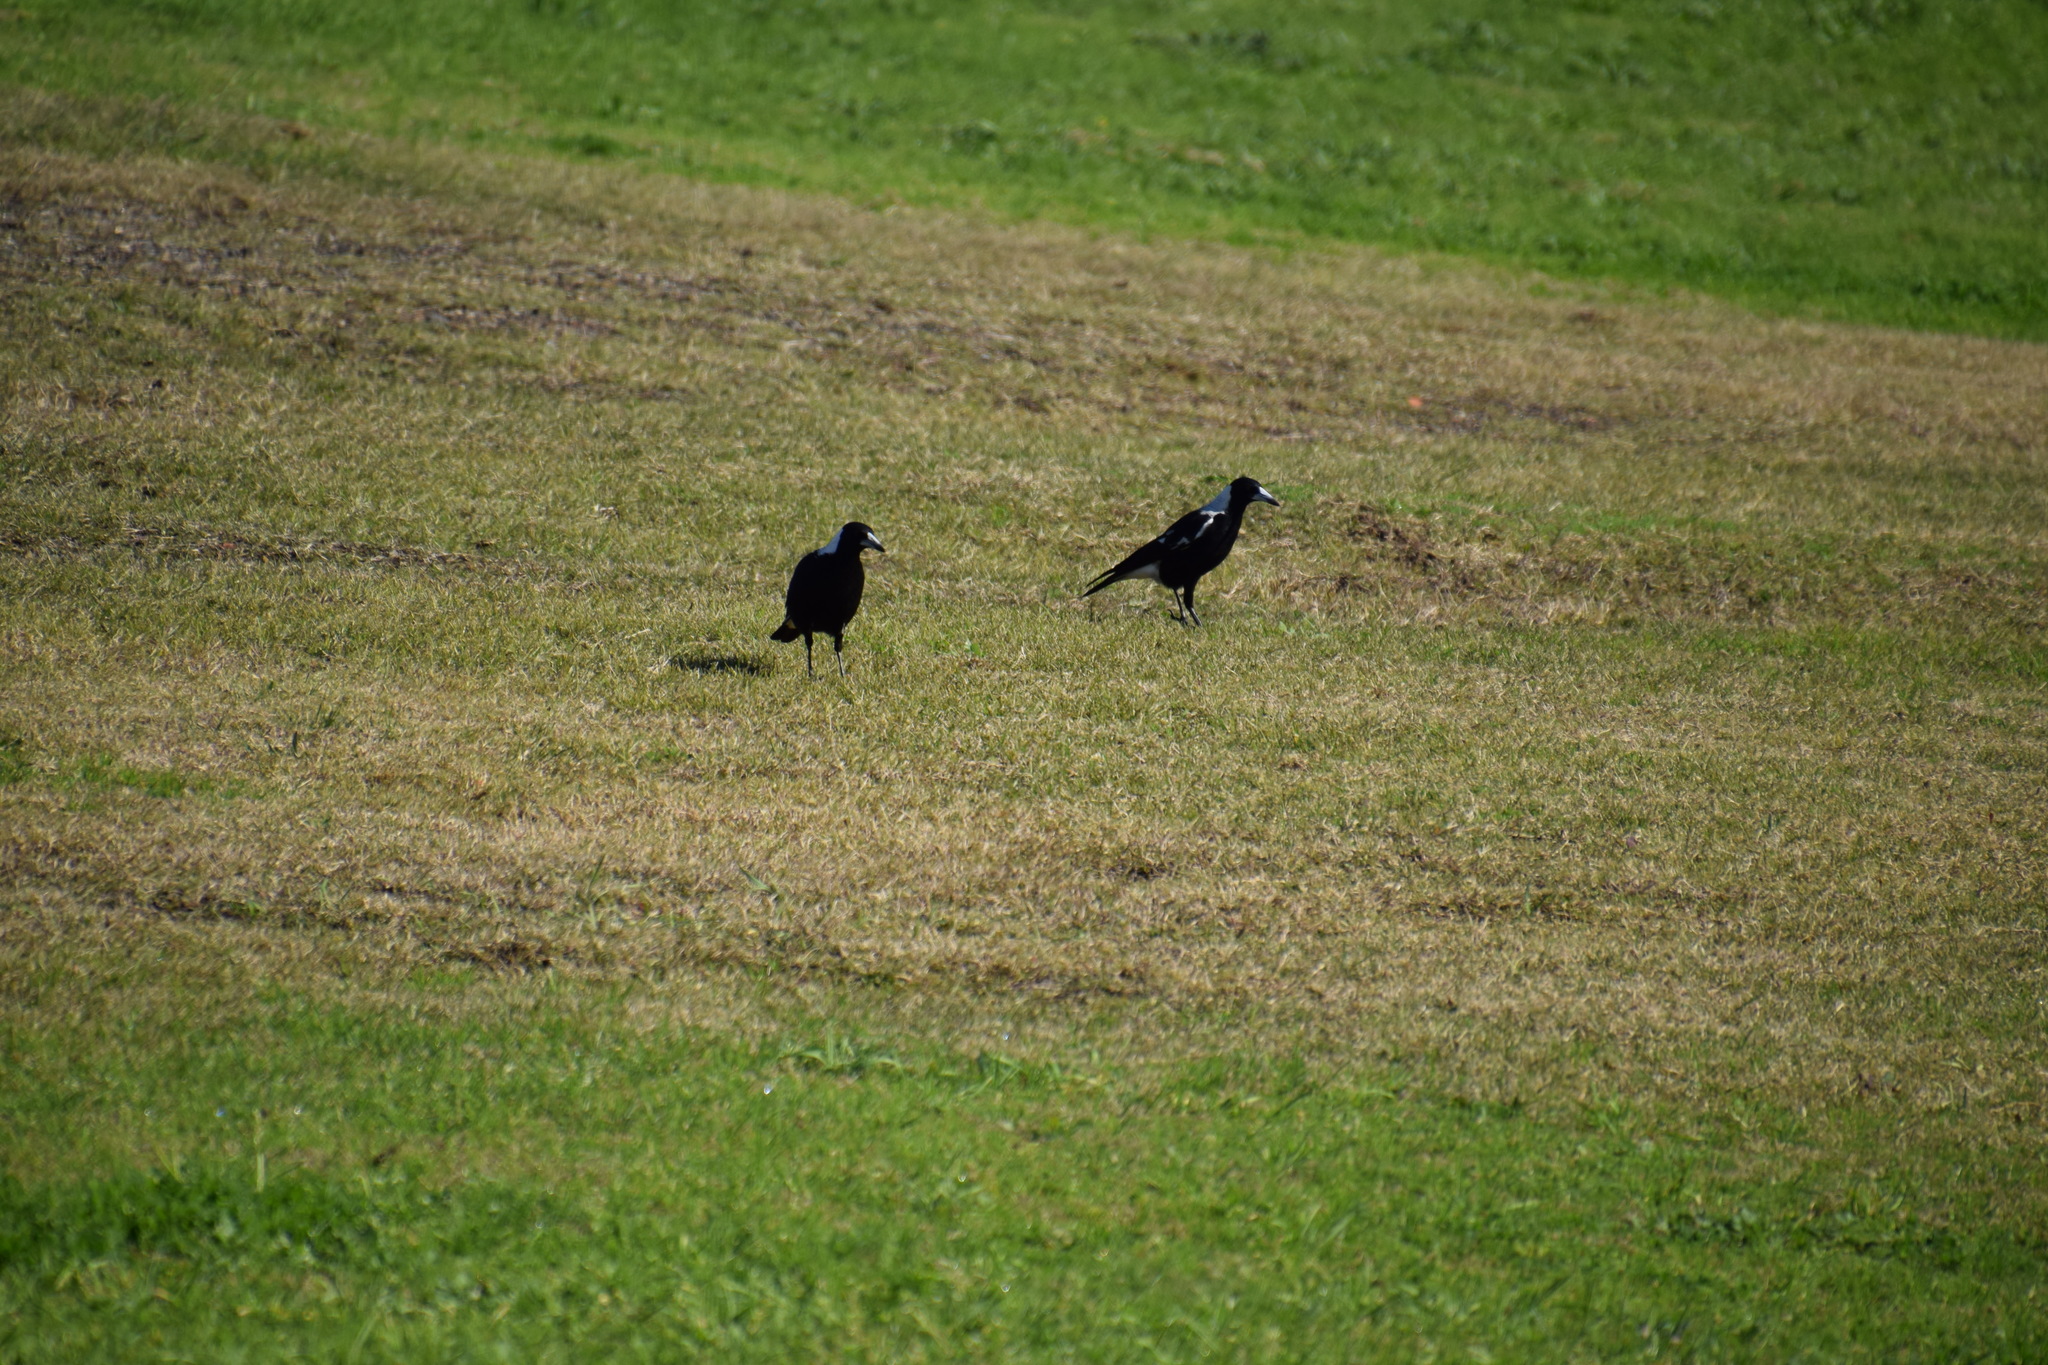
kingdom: Animalia
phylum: Chordata
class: Aves
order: Passeriformes
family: Cracticidae
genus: Gymnorhina
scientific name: Gymnorhina tibicen
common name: Australian magpie
